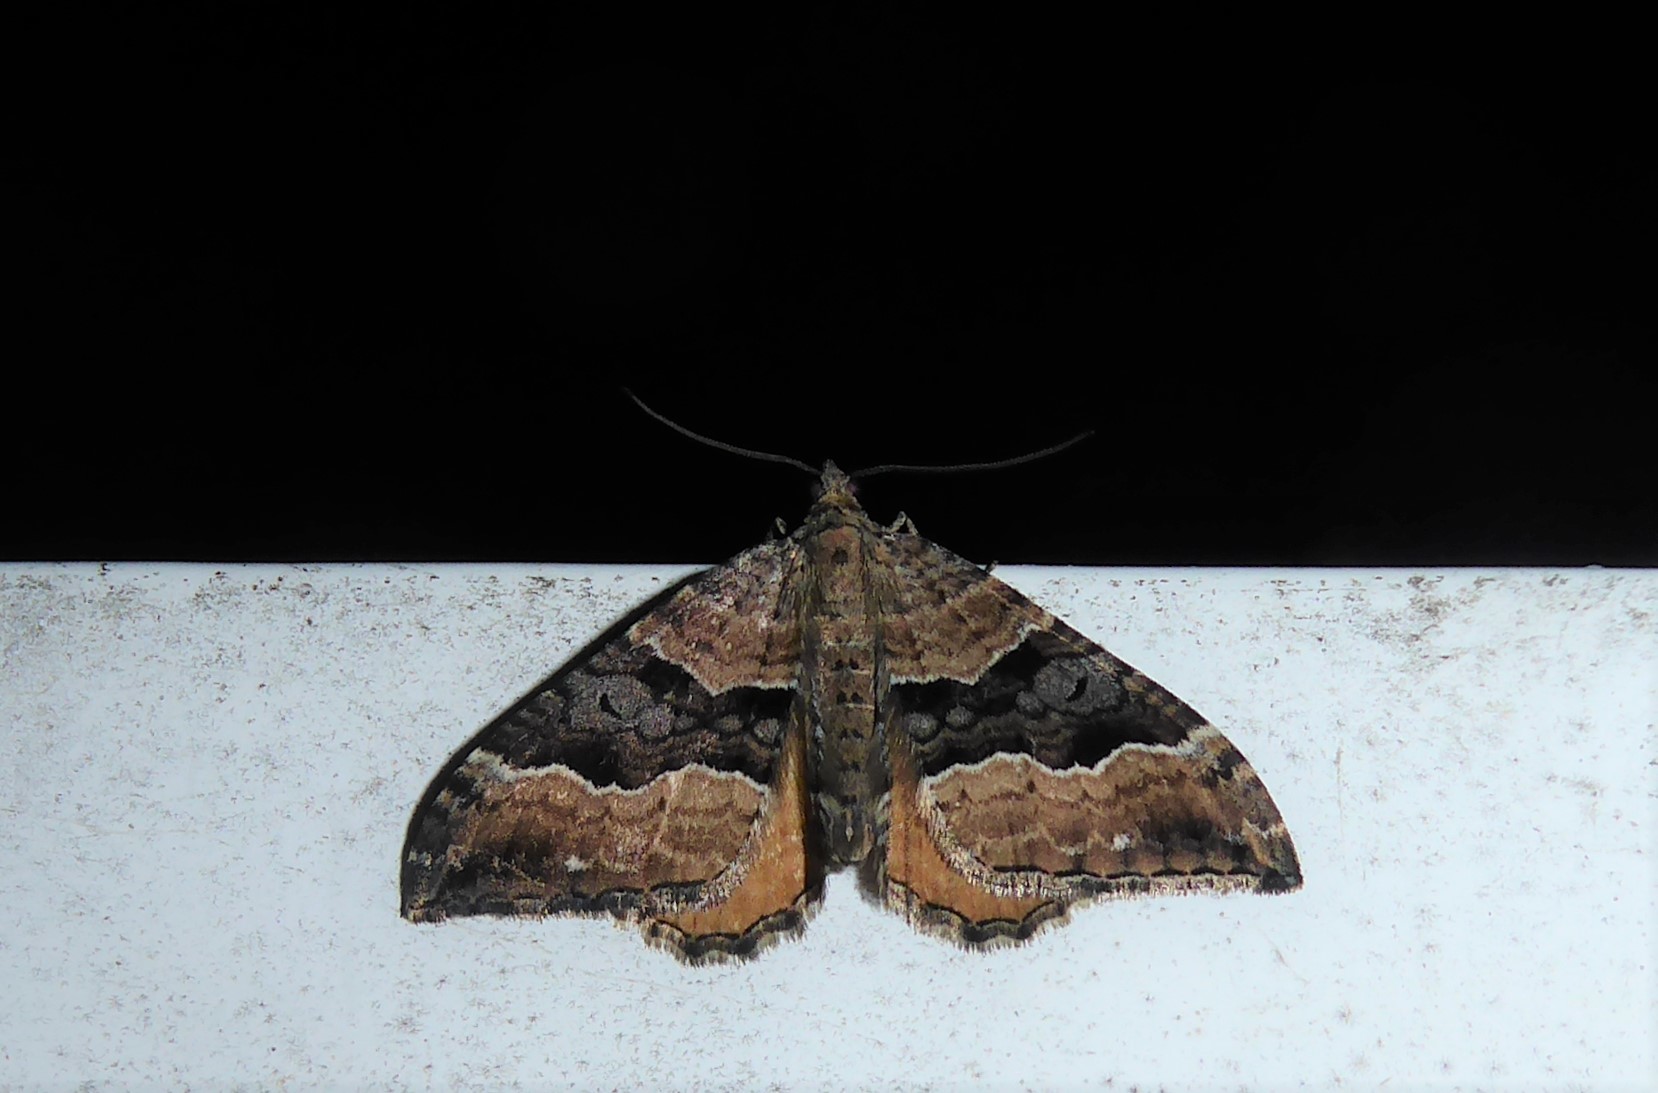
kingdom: Animalia
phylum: Arthropoda
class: Insecta
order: Lepidoptera
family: Geometridae
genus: Hydriomena
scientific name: Hydriomena deltoidata
